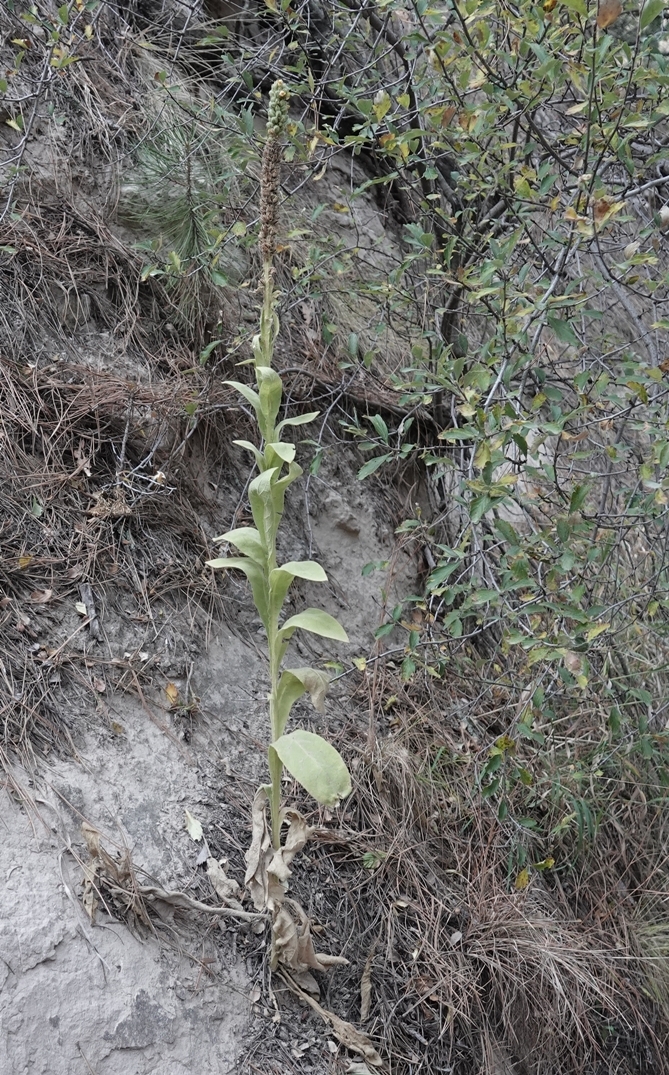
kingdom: Plantae
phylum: Tracheophyta
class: Magnoliopsida
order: Lamiales
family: Scrophulariaceae
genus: Verbascum
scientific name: Verbascum thapsus
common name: Common mullein
